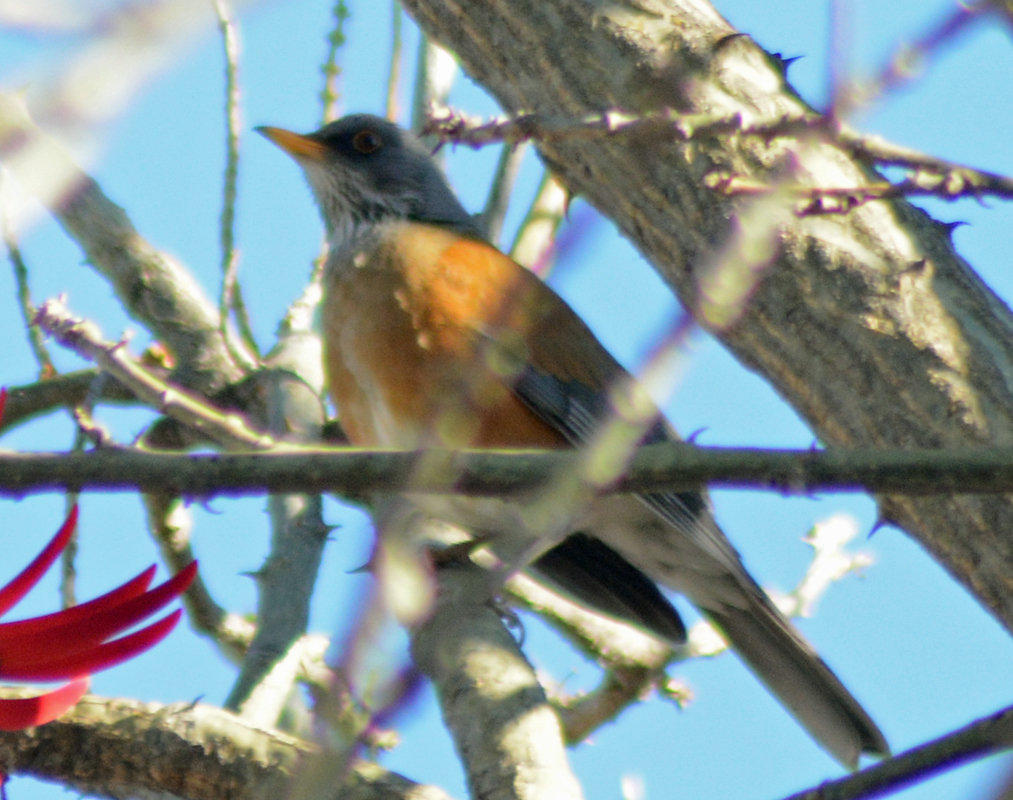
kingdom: Animalia
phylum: Chordata
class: Aves
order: Passeriformes
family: Turdidae
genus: Turdus
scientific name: Turdus rufopalliatus
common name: Rufous-backed robin
